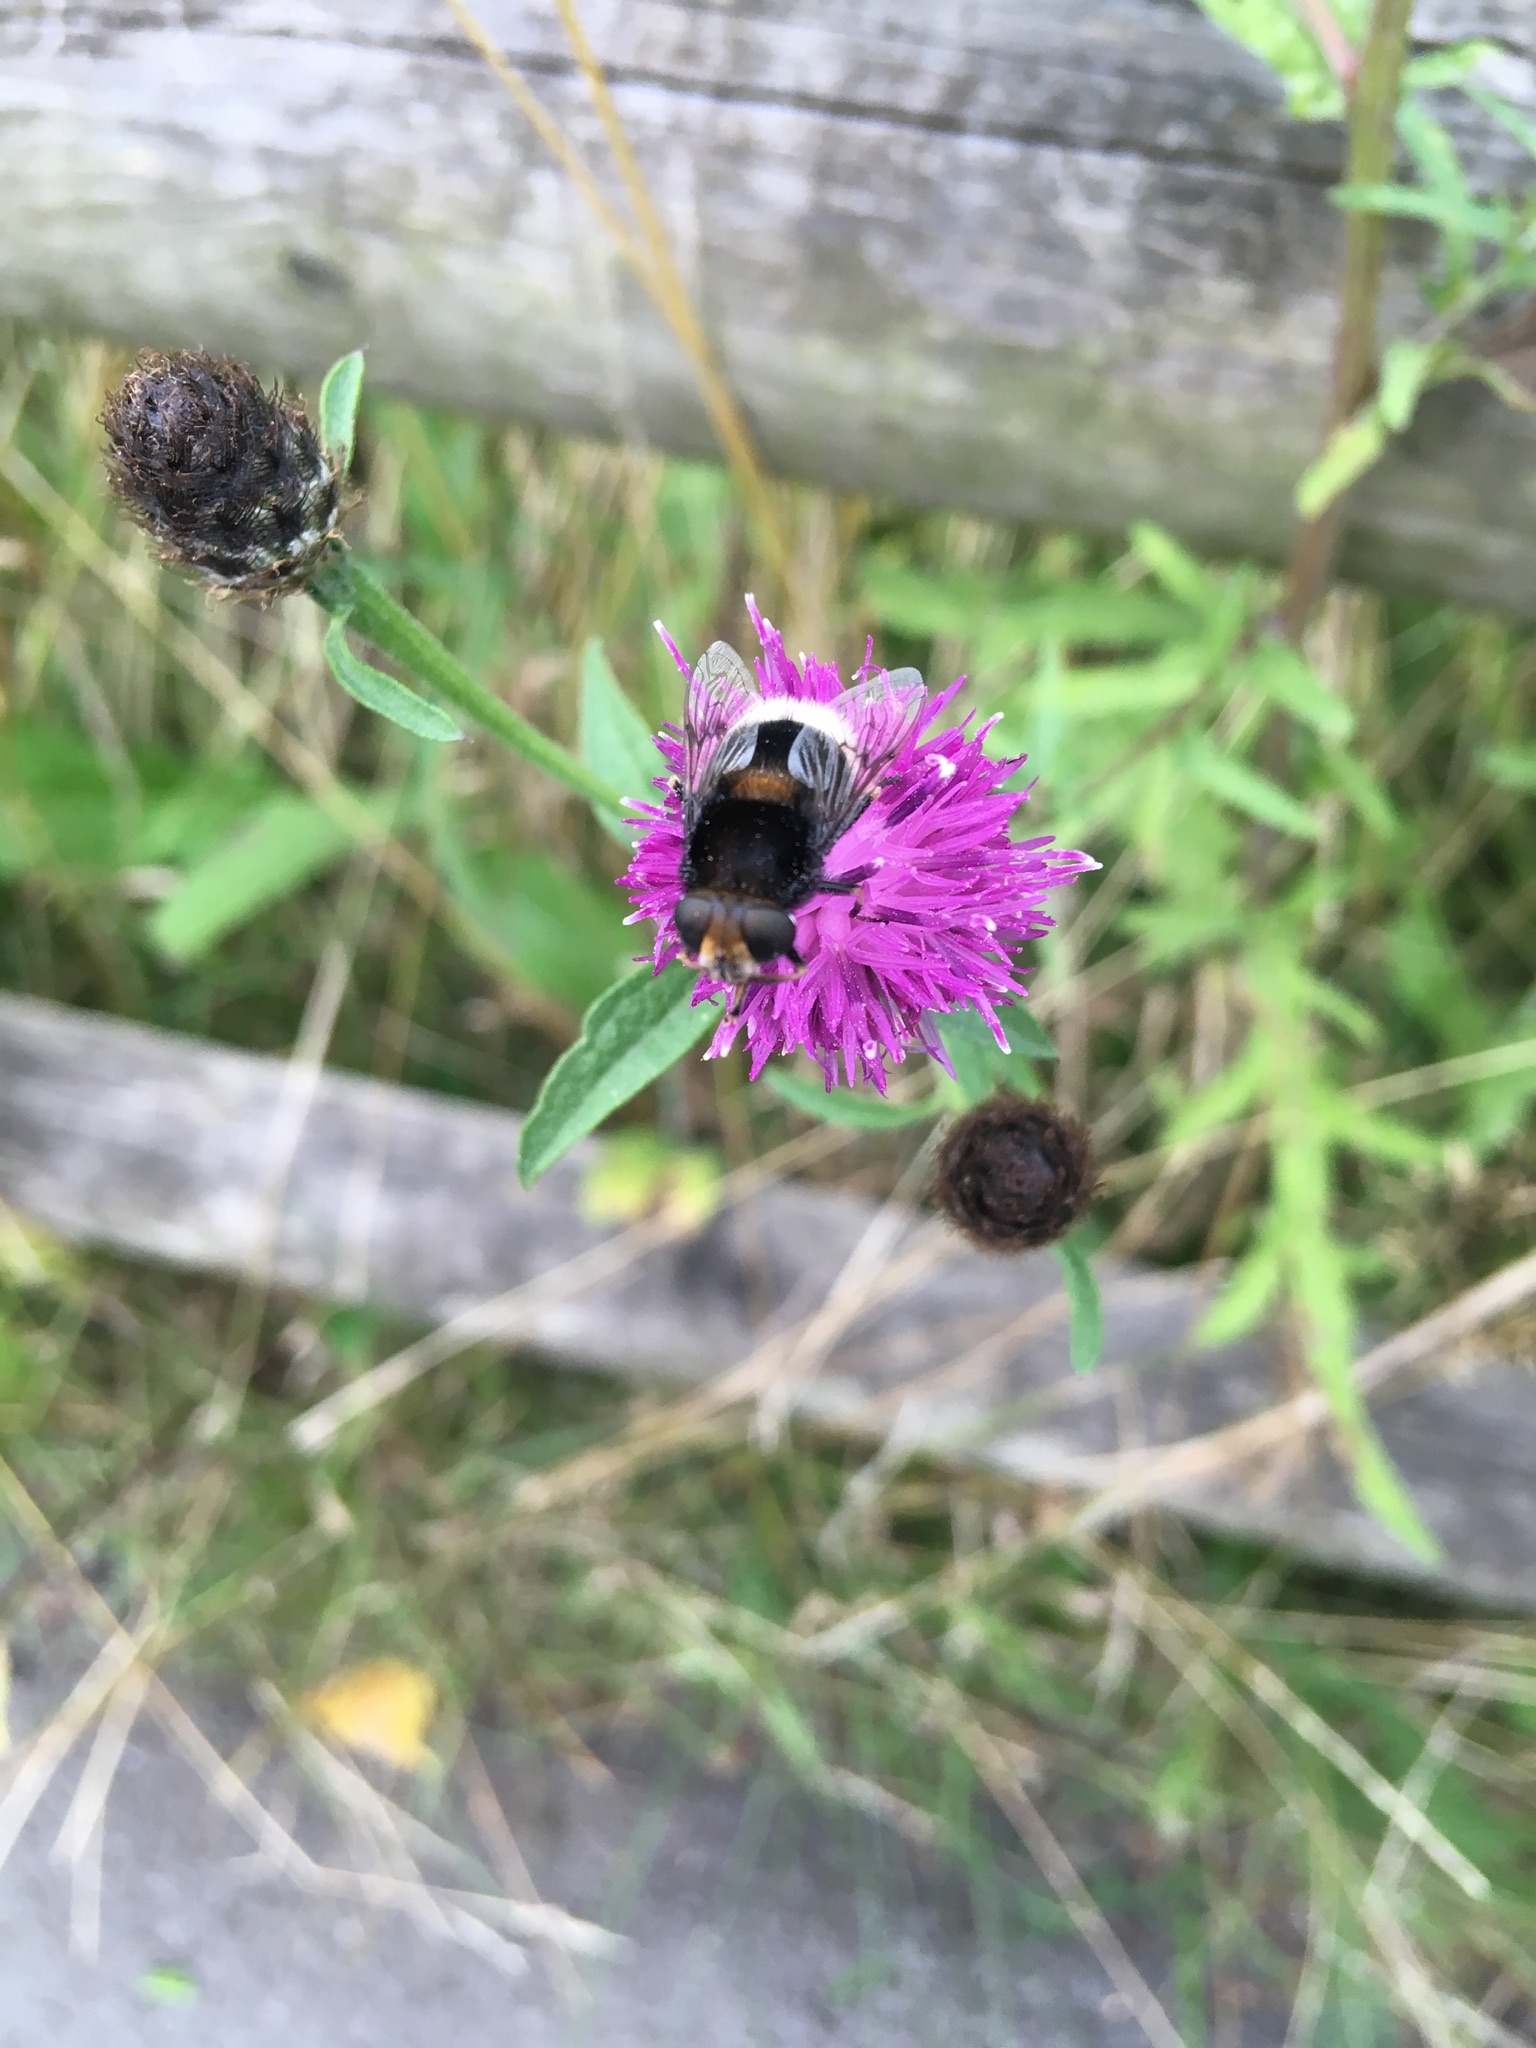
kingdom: Animalia
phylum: Arthropoda
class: Insecta
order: Diptera
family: Syrphidae
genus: Eristalis
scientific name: Eristalis intricaria
